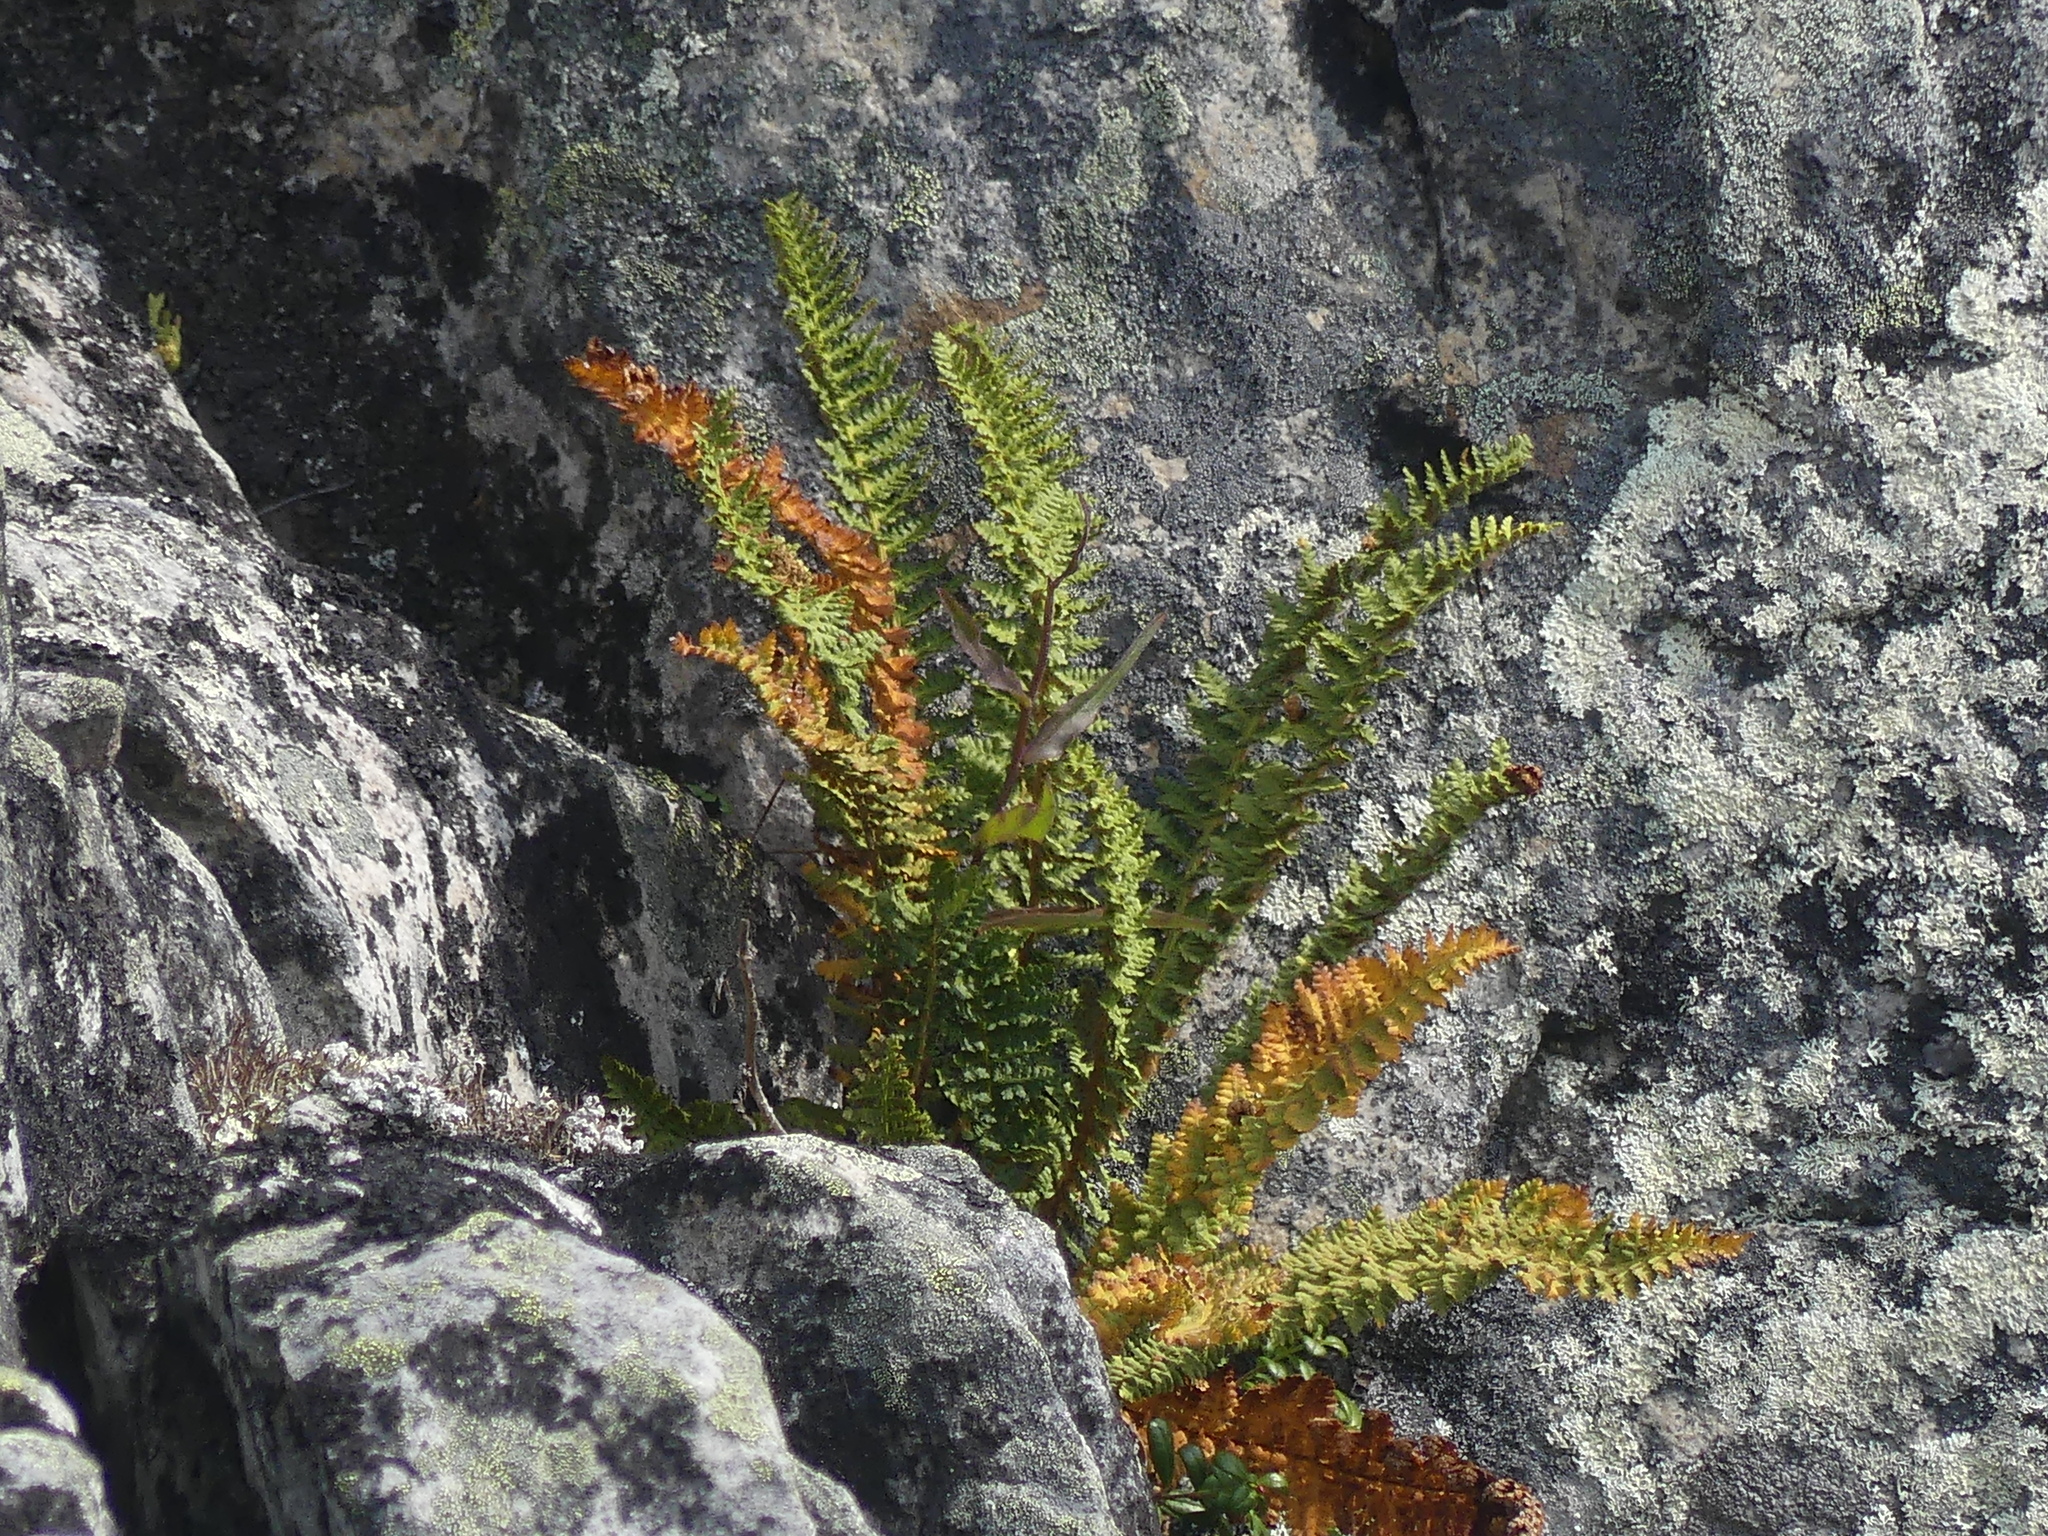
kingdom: Plantae
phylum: Tracheophyta
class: Polypodiopsida
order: Polypodiales
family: Dryopteridaceae
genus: Dryopteris
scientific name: Dryopteris fragrans
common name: Fragrant wood fern
